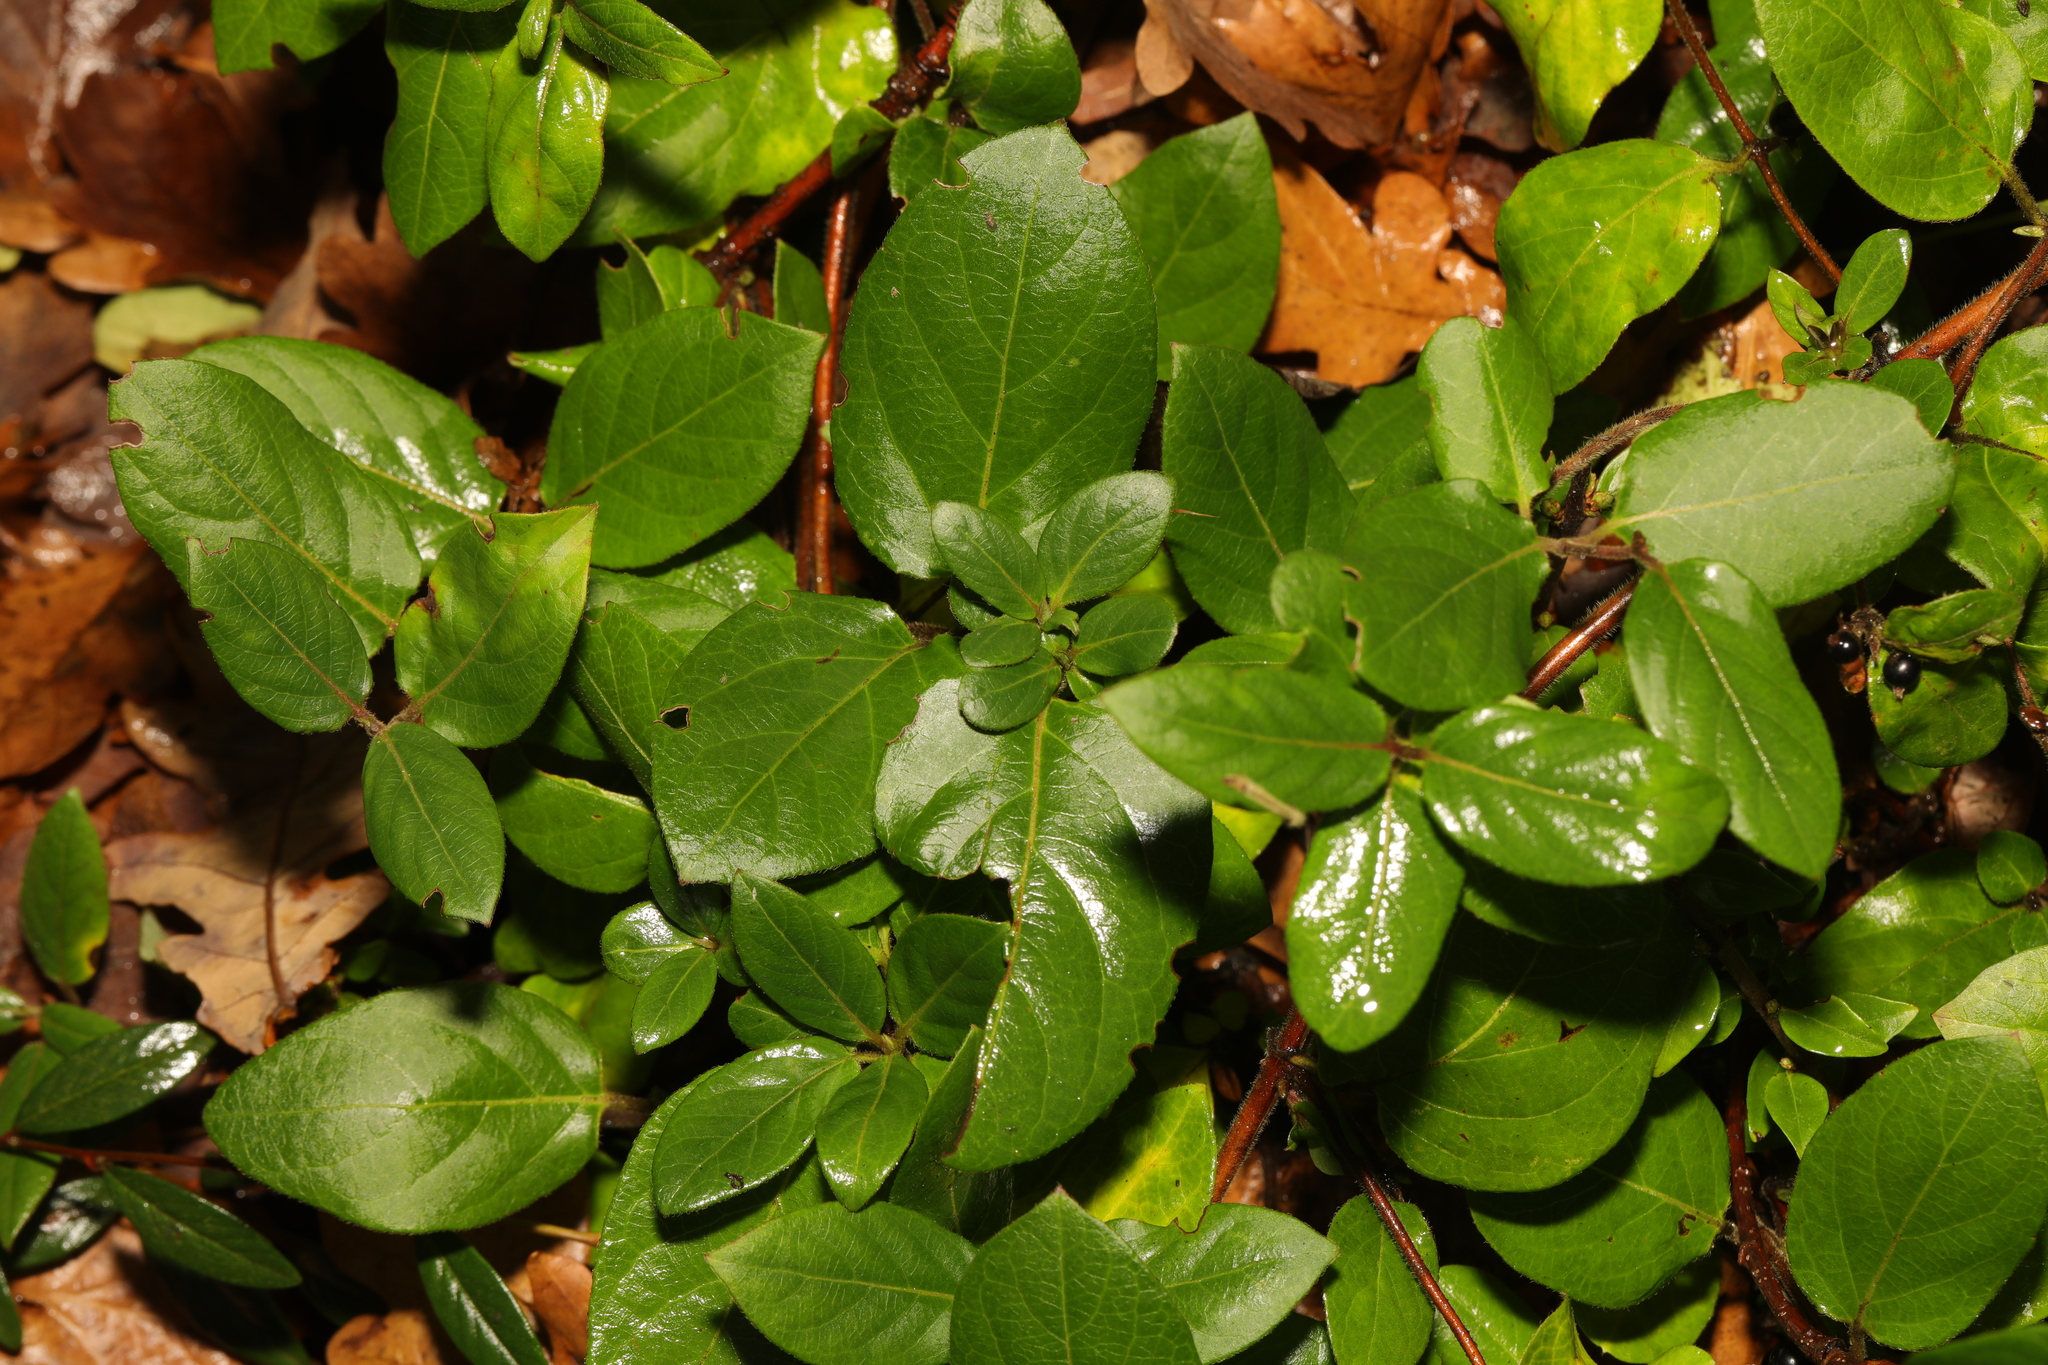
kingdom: Plantae
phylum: Tracheophyta
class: Magnoliopsida
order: Dipsacales
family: Caprifoliaceae
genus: Lonicera
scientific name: Lonicera japonica
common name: Japanese honeysuckle
